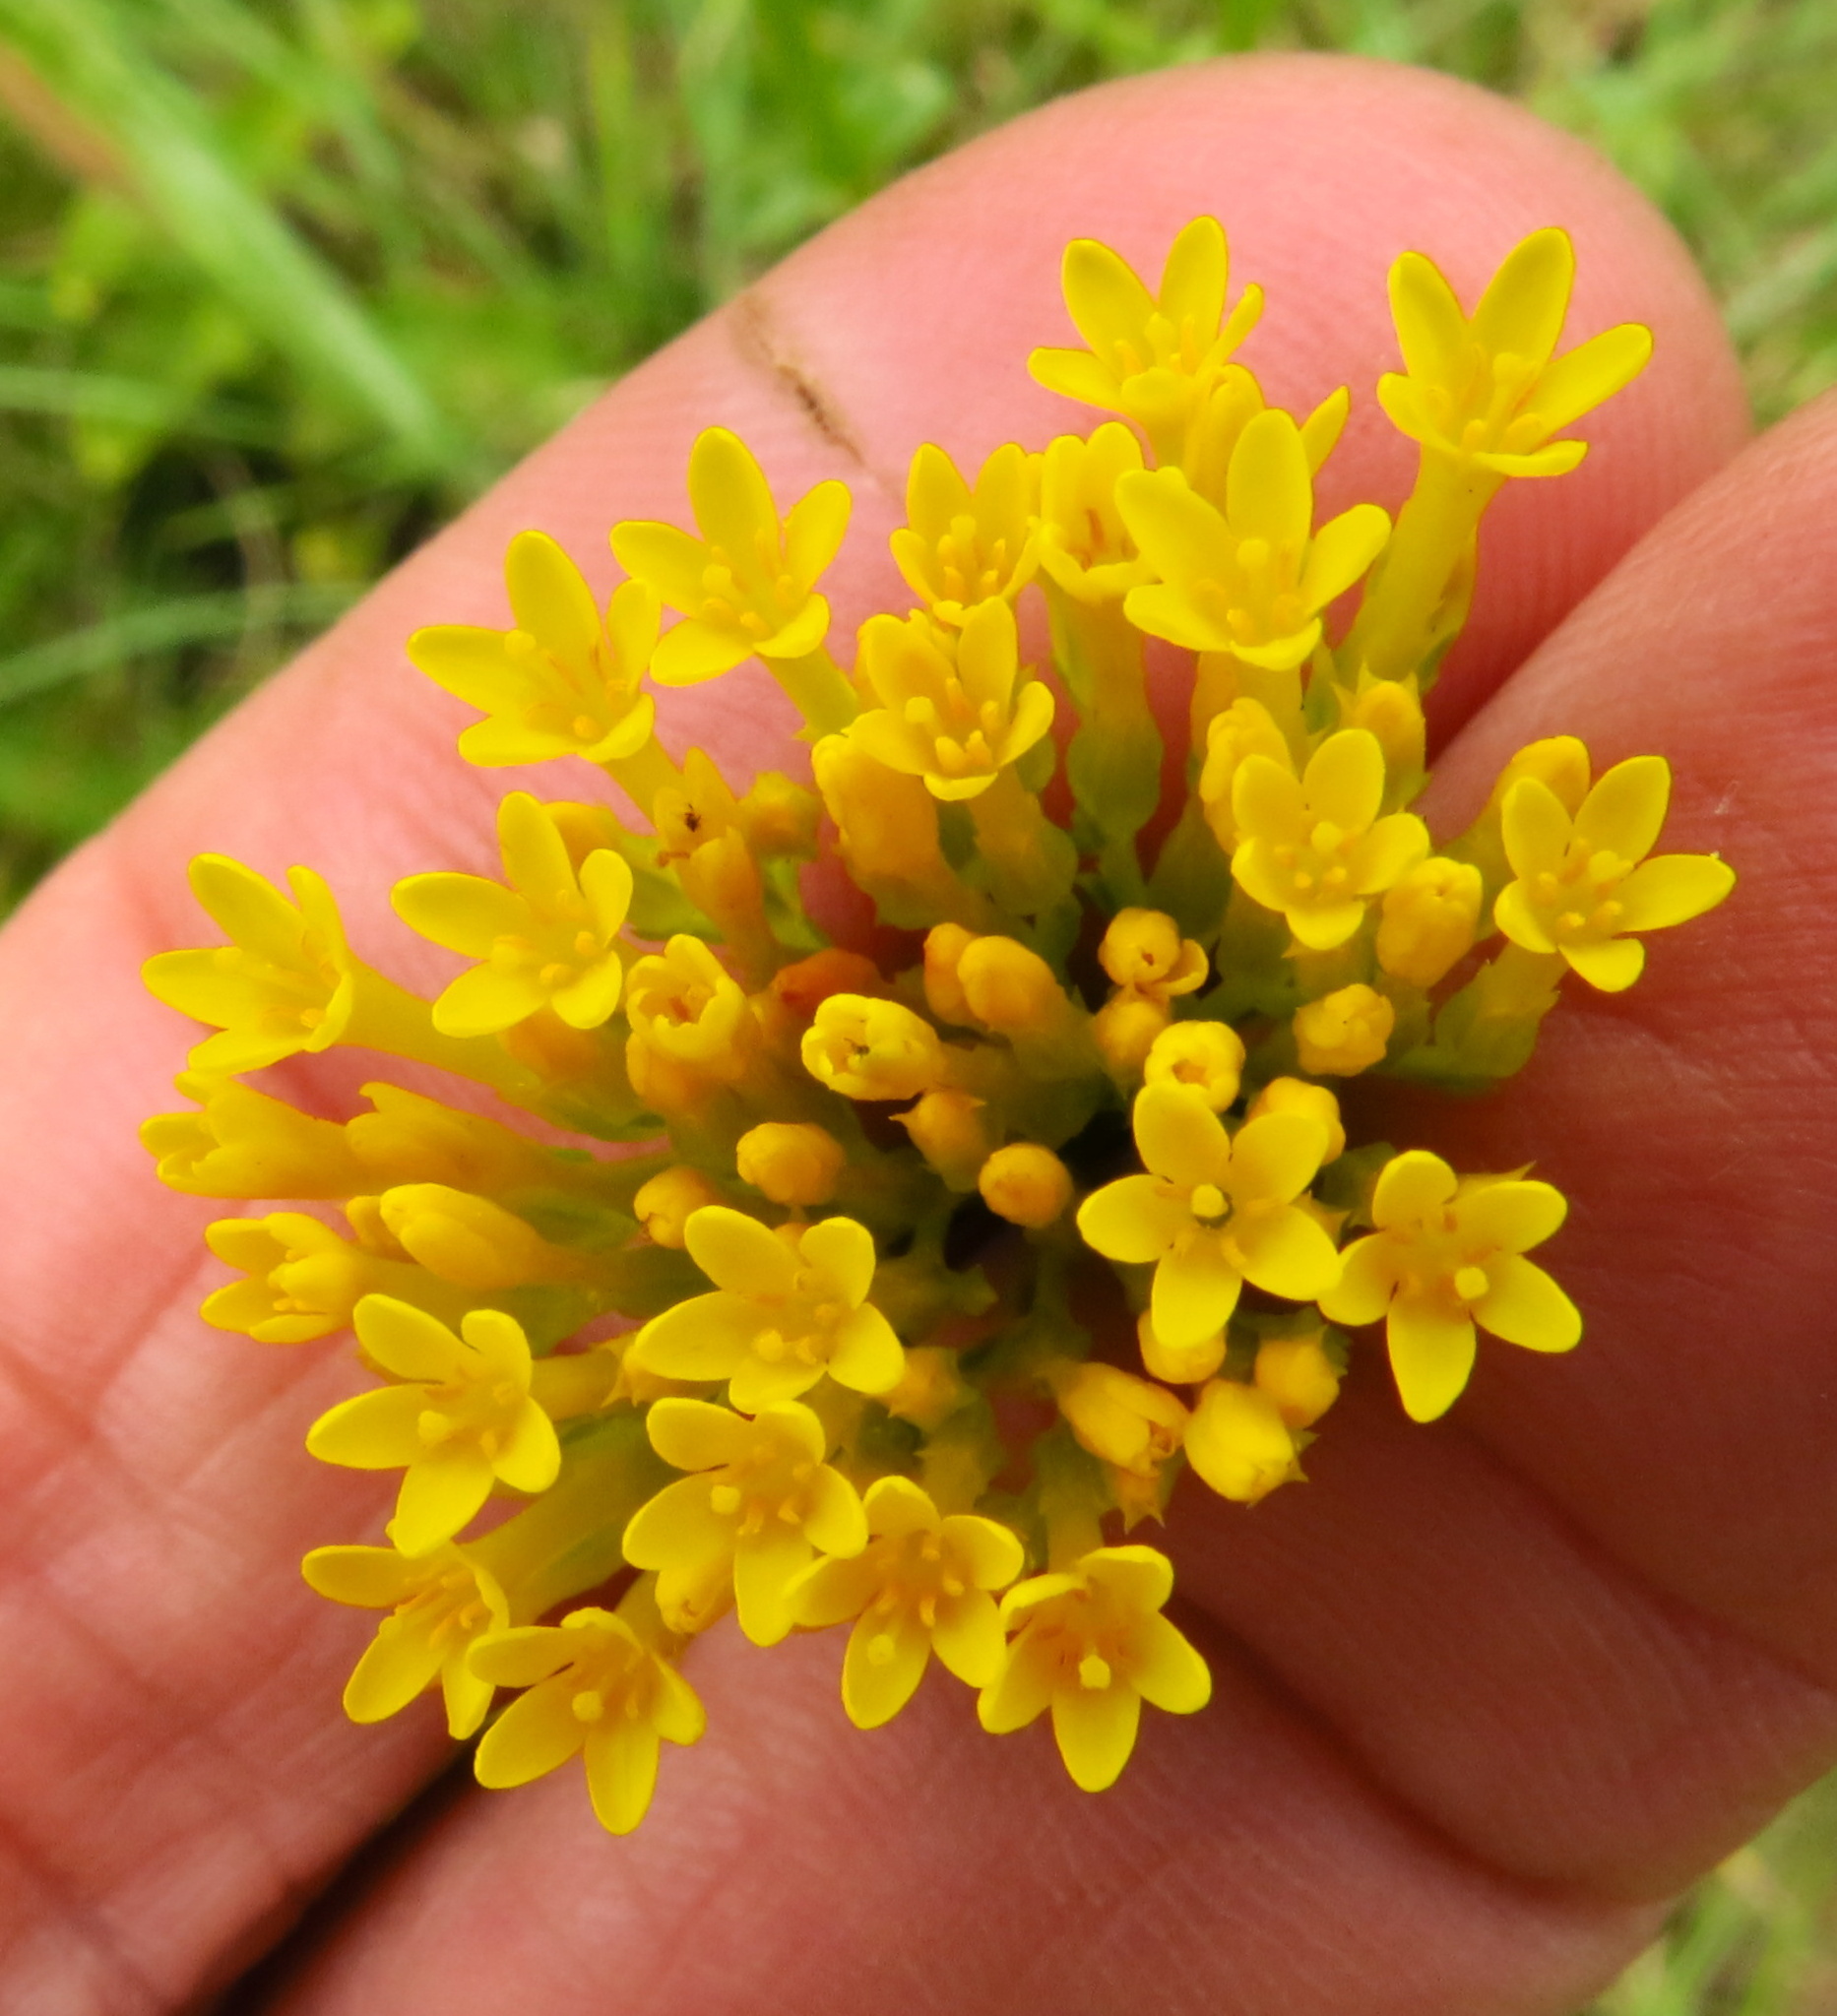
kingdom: Plantae
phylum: Tracheophyta
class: Magnoliopsida
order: Gentianales
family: Gentianaceae
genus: Sebaea
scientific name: Sebaea sedoides
